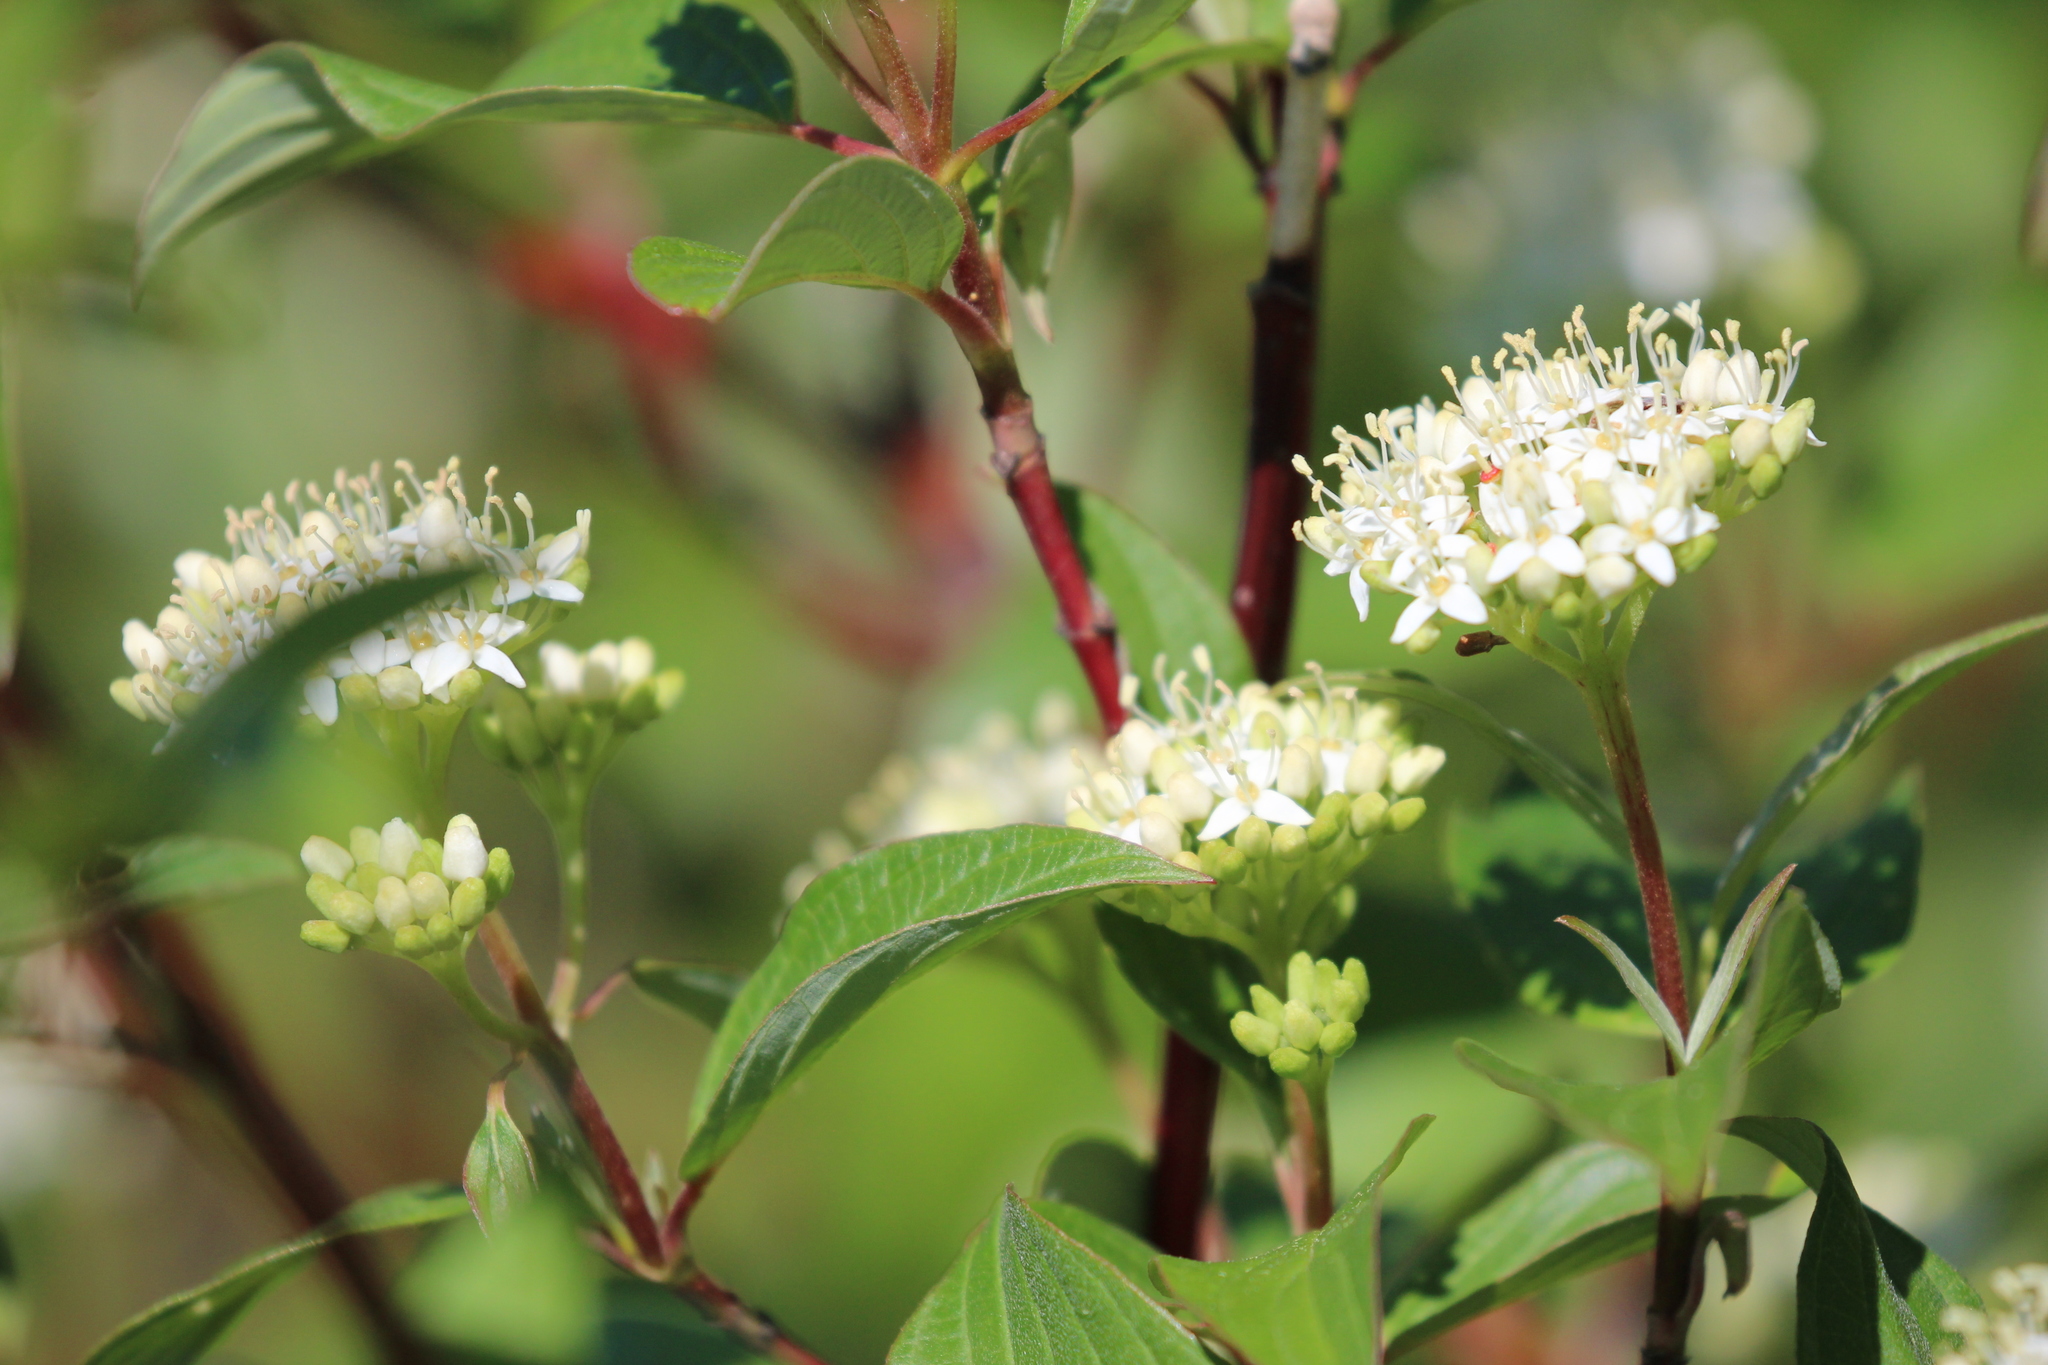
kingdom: Plantae
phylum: Tracheophyta
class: Magnoliopsida
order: Cornales
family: Cornaceae
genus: Cornus
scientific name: Cornus sericea
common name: Red-osier dogwood
